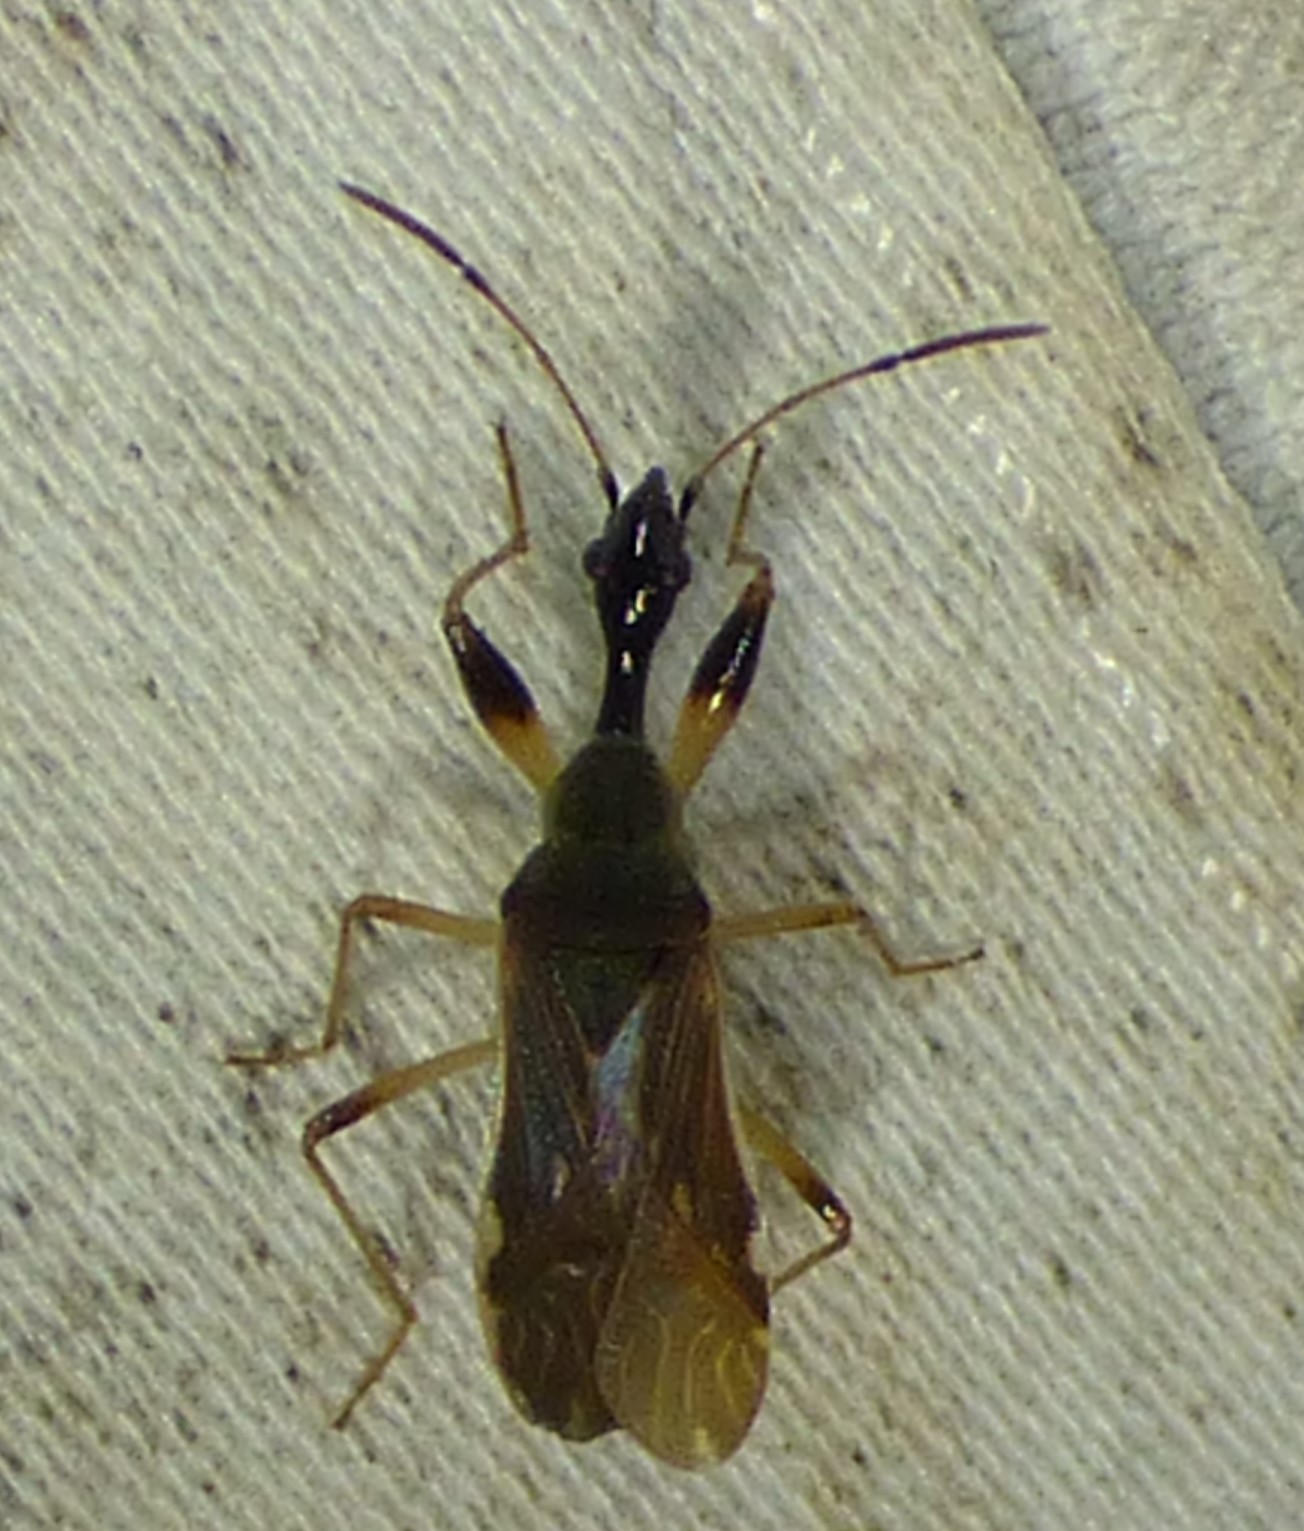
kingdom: Animalia
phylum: Arthropoda
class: Insecta
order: Hemiptera
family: Rhyparochromidae
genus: Myodocha
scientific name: Myodocha serripes
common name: Long-necked seed bug
